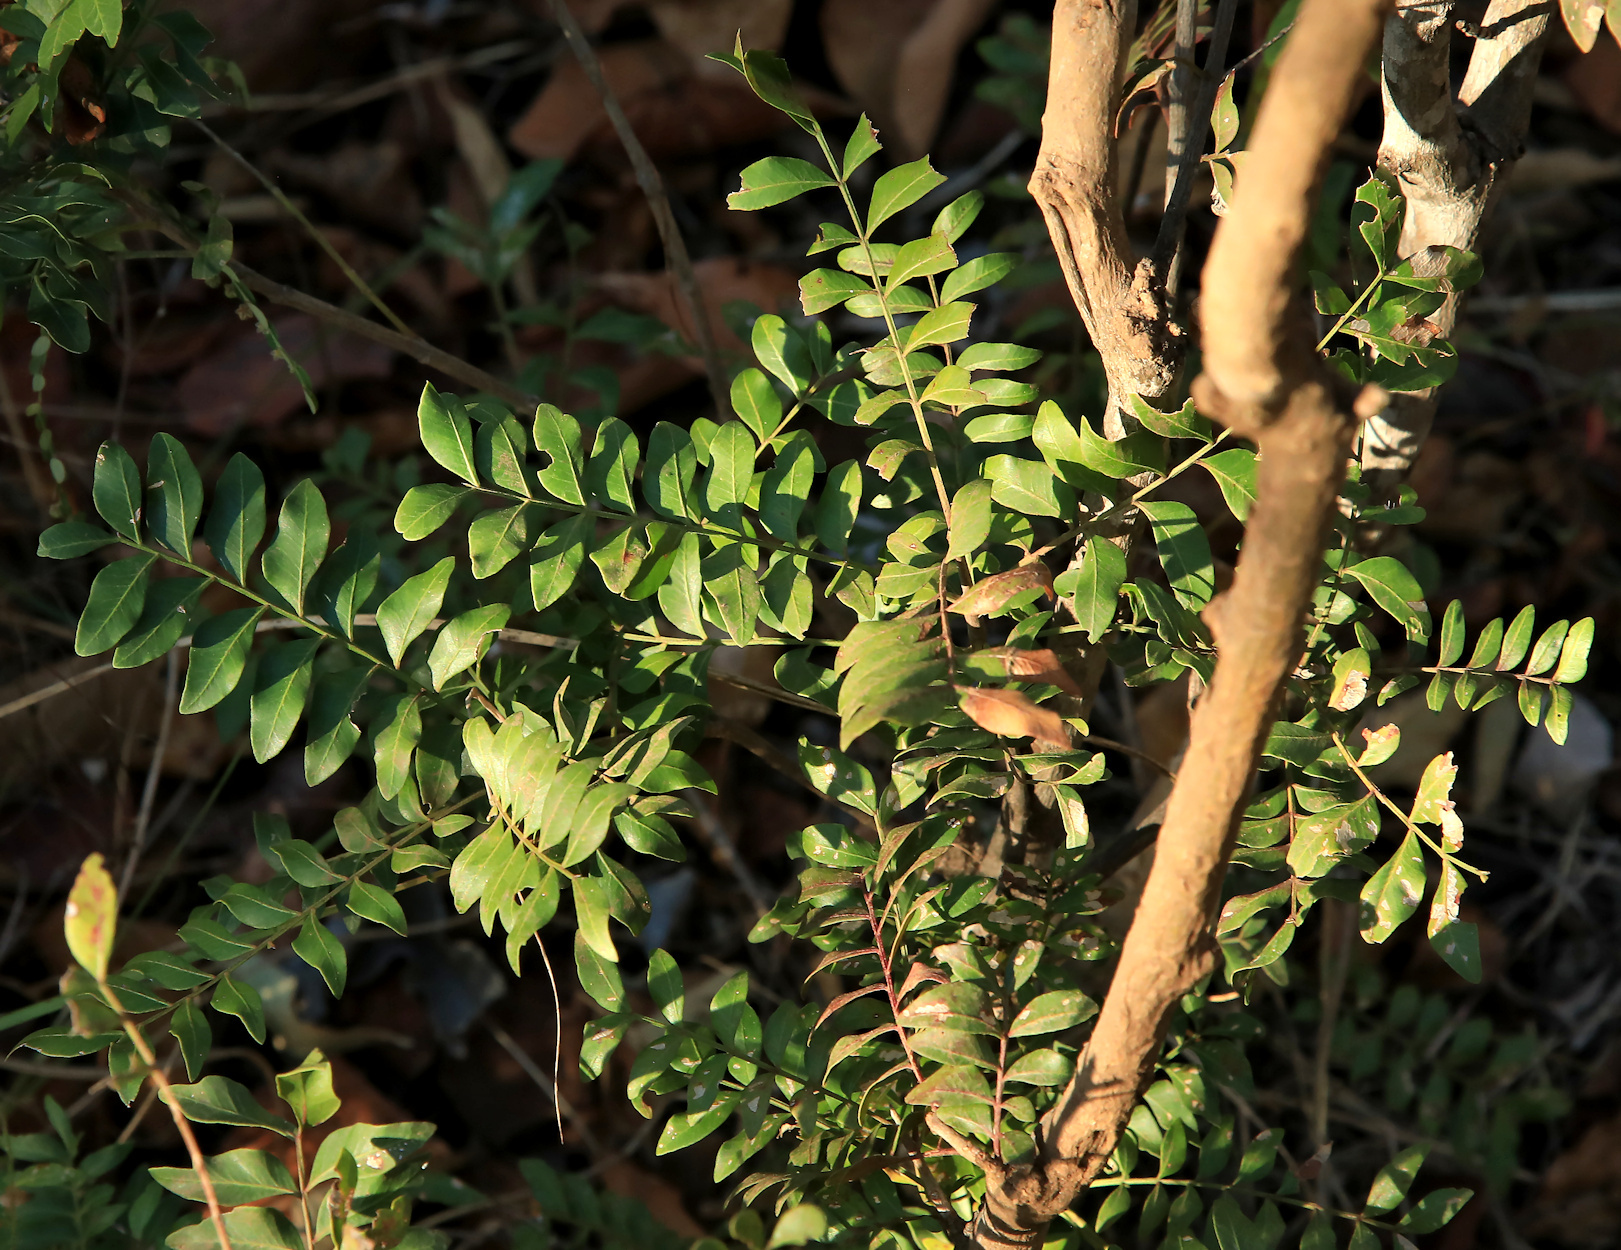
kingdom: Plantae
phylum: Tracheophyta
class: Magnoliopsida
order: Sapindales
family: Rutaceae
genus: Ptaeroxylon
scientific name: Ptaeroxylon obliquum
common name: Sneezewood
